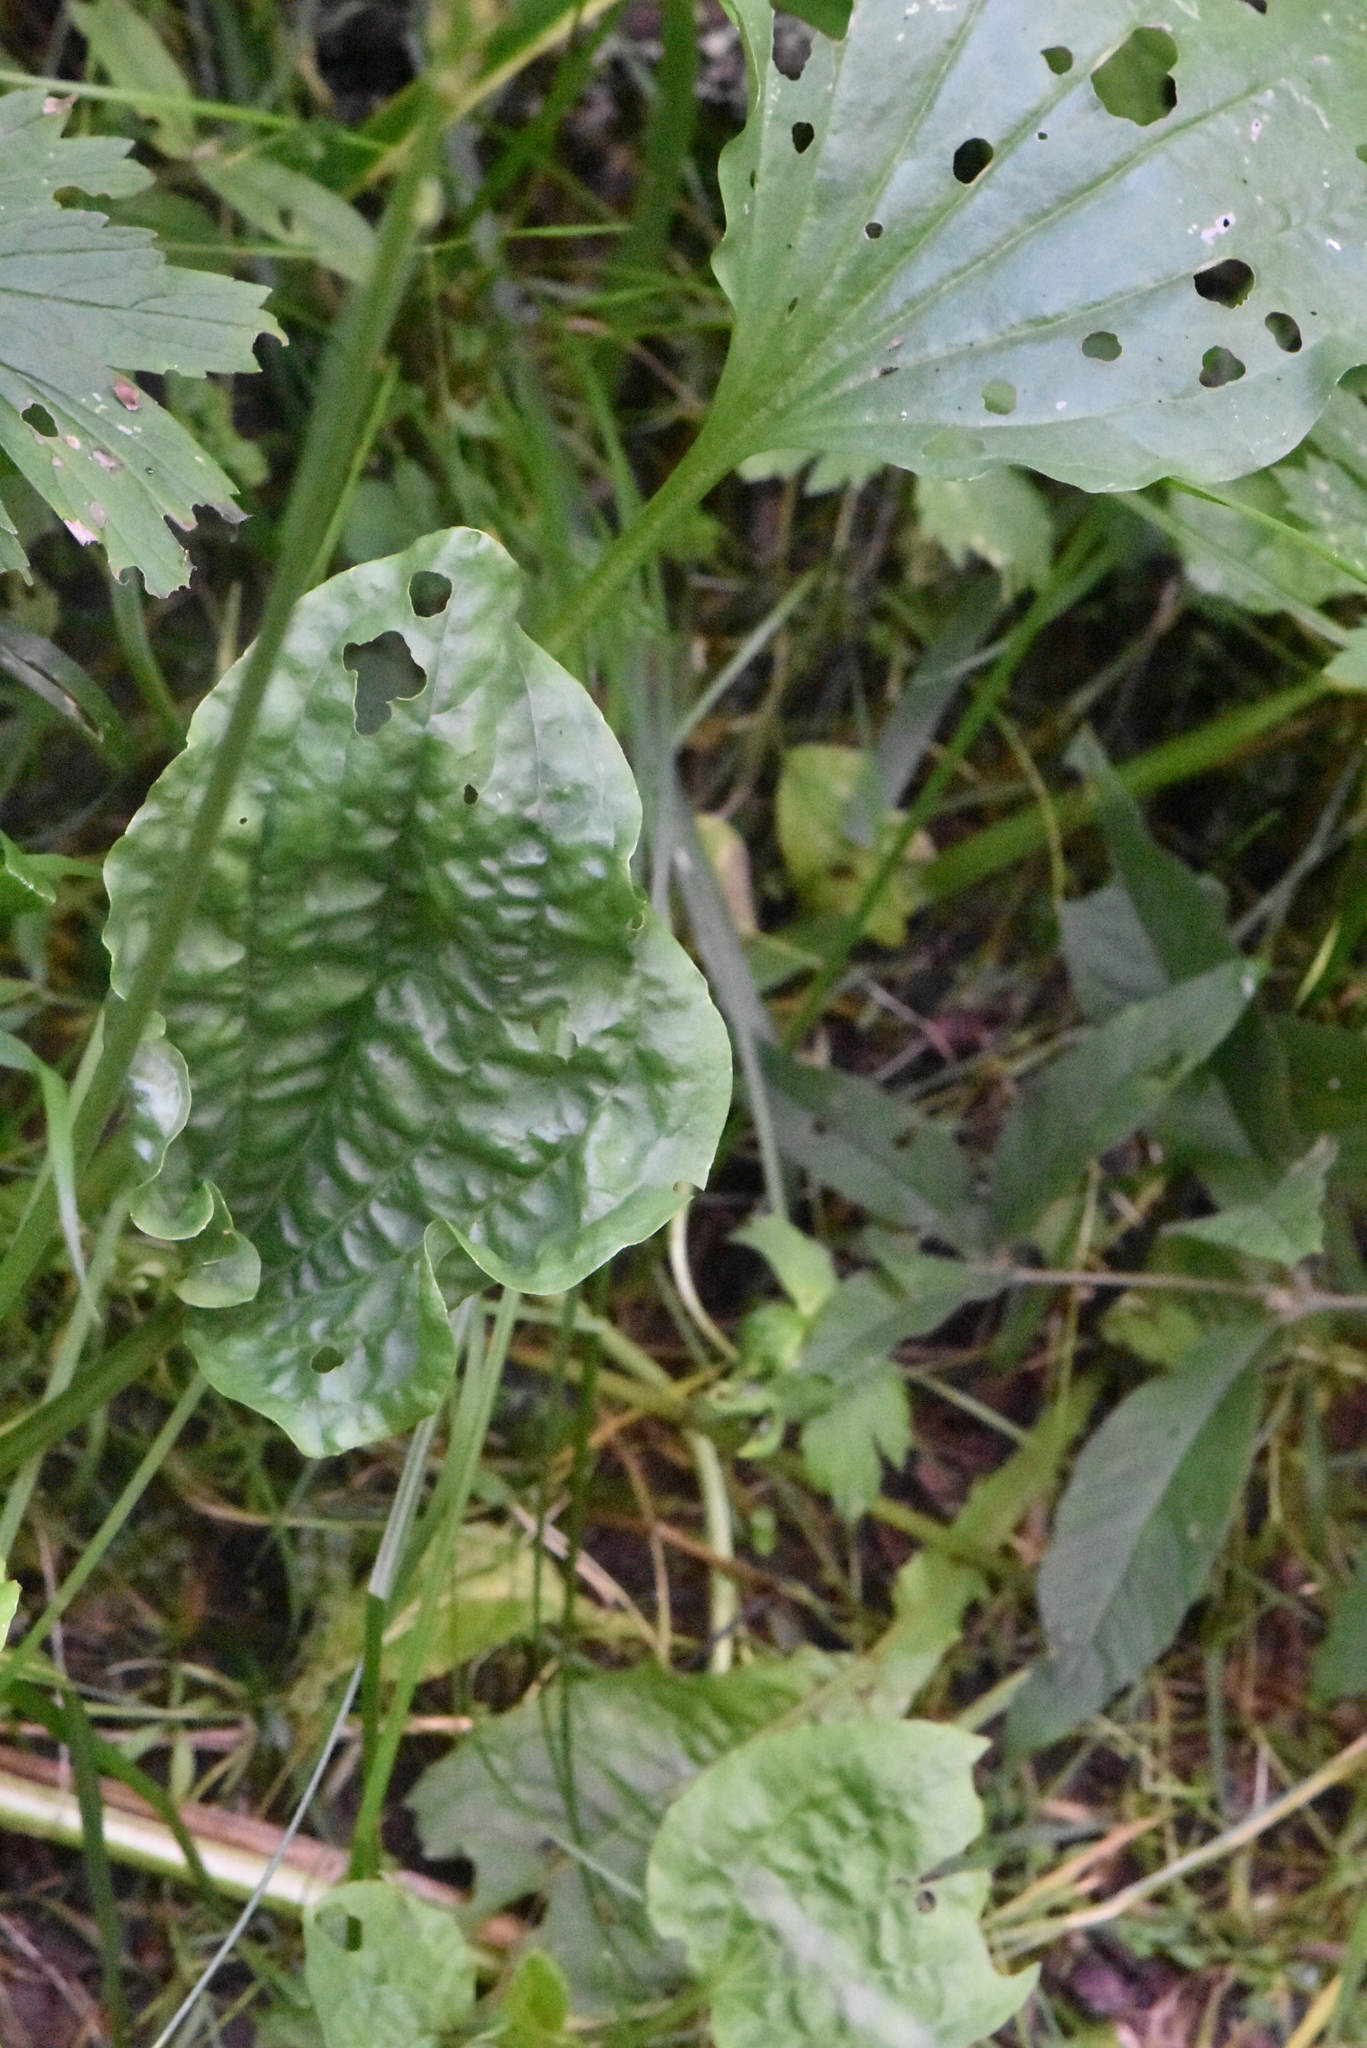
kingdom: Plantae
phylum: Tracheophyta
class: Magnoliopsida
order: Lamiales
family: Plantaginaceae
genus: Plantago
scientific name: Plantago major
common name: Common plantain
